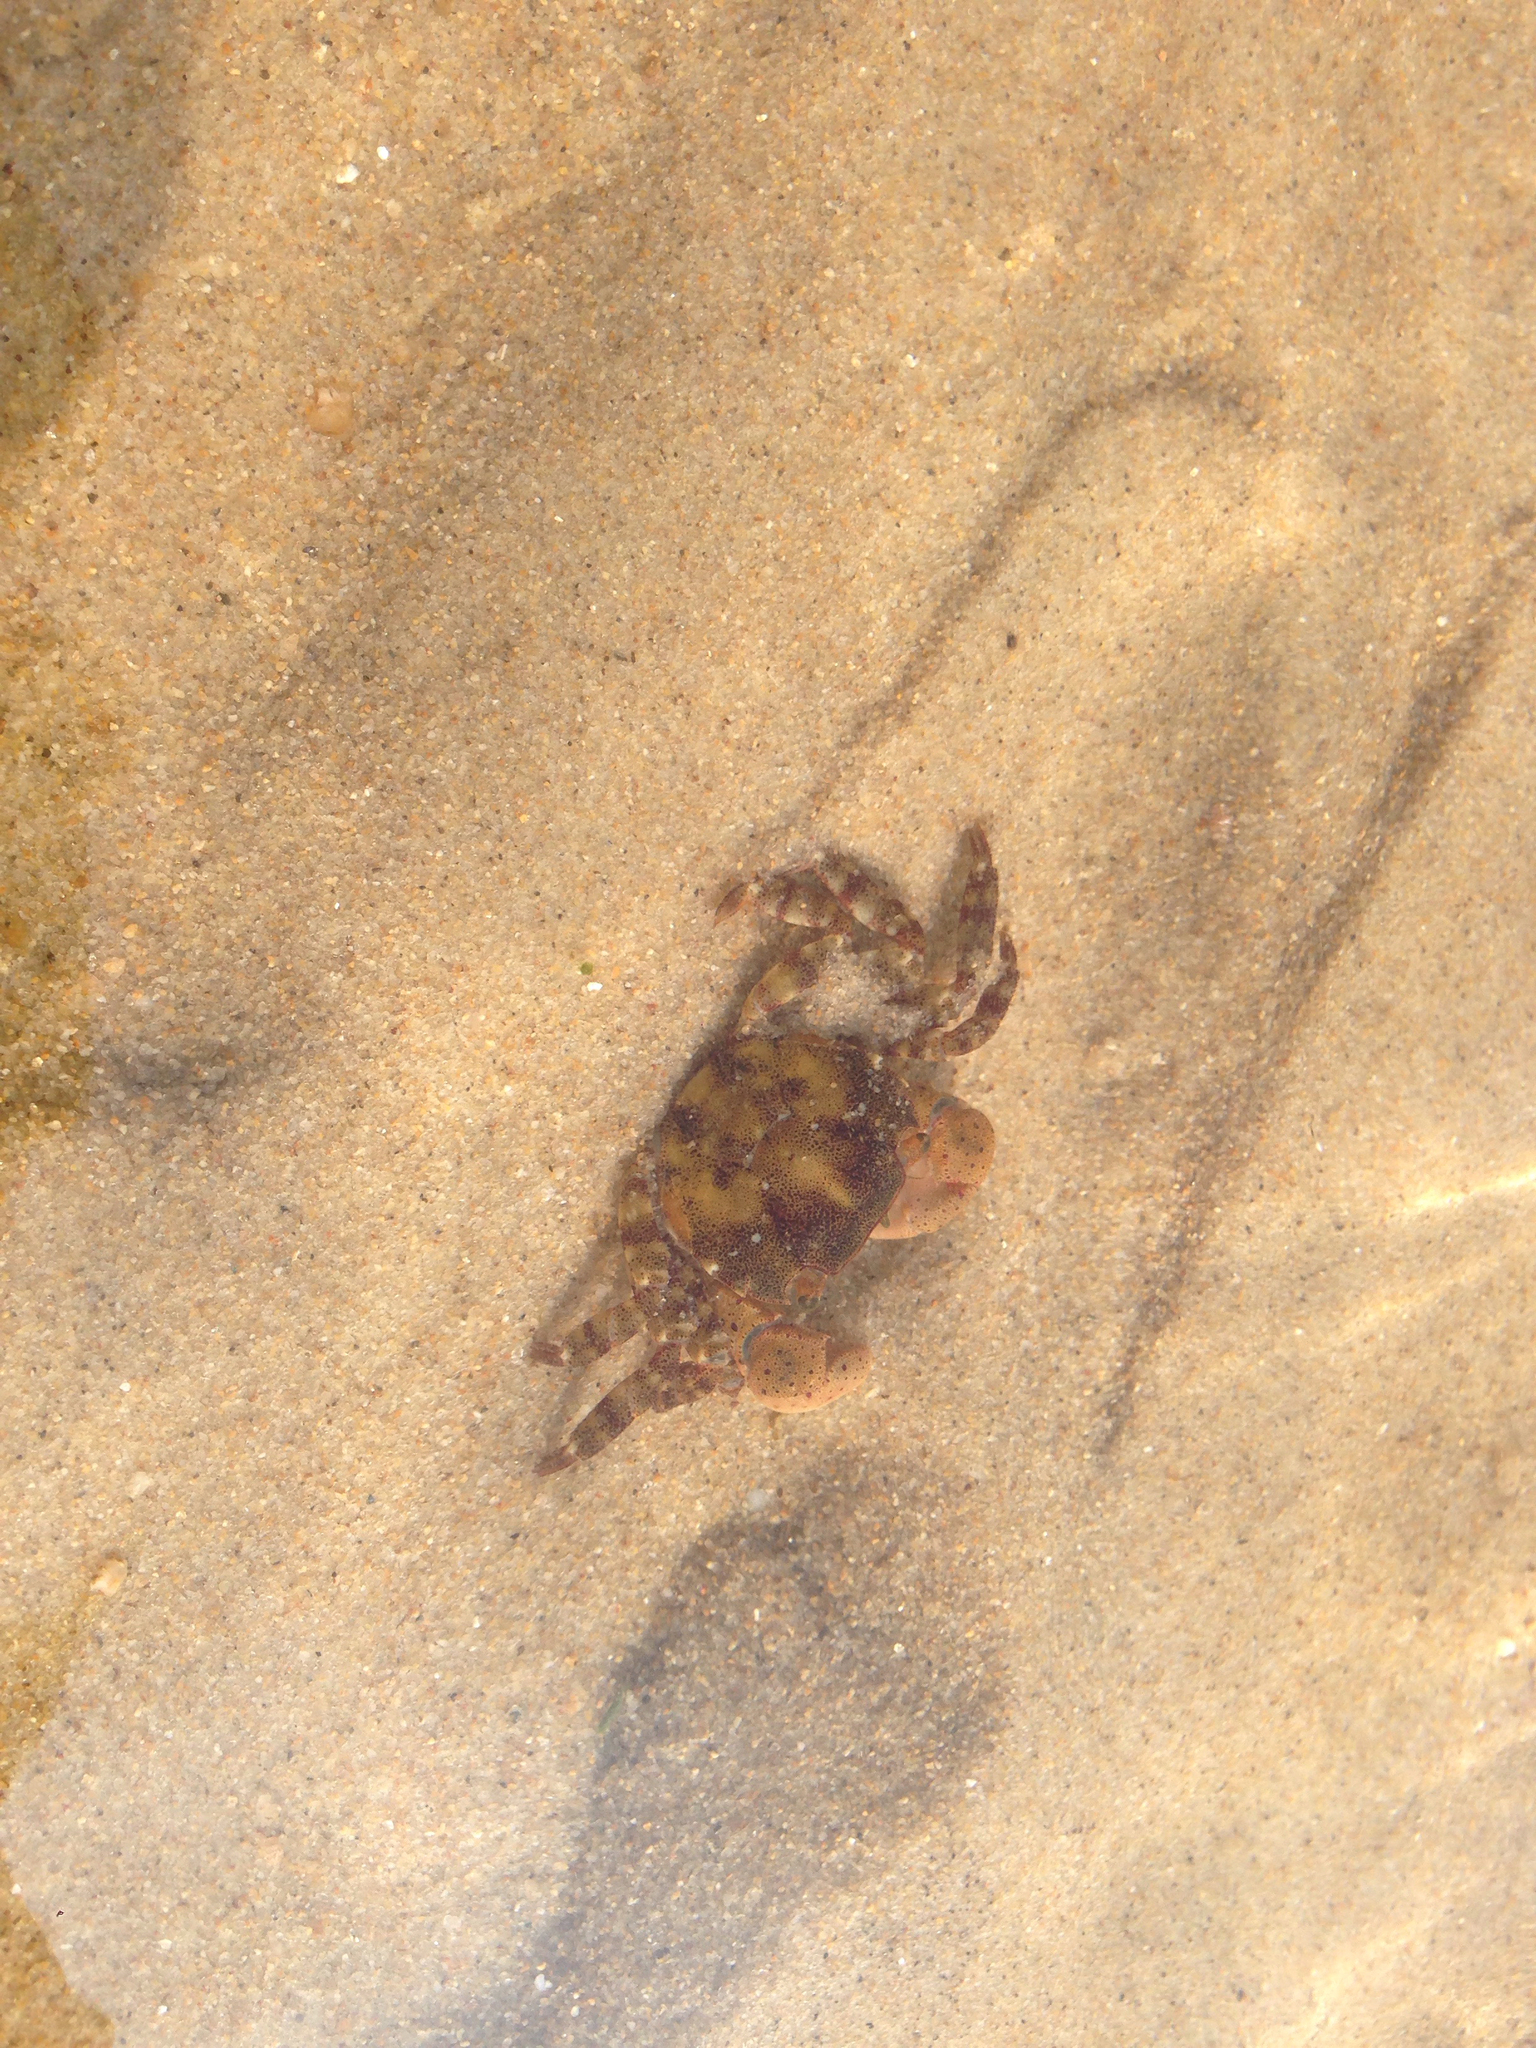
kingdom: Animalia
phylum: Arthropoda
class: Malacostraca
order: Decapoda
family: Varunidae
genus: Hemigrapsus
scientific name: Hemigrapsus sanguineus
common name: Asian shore crab
